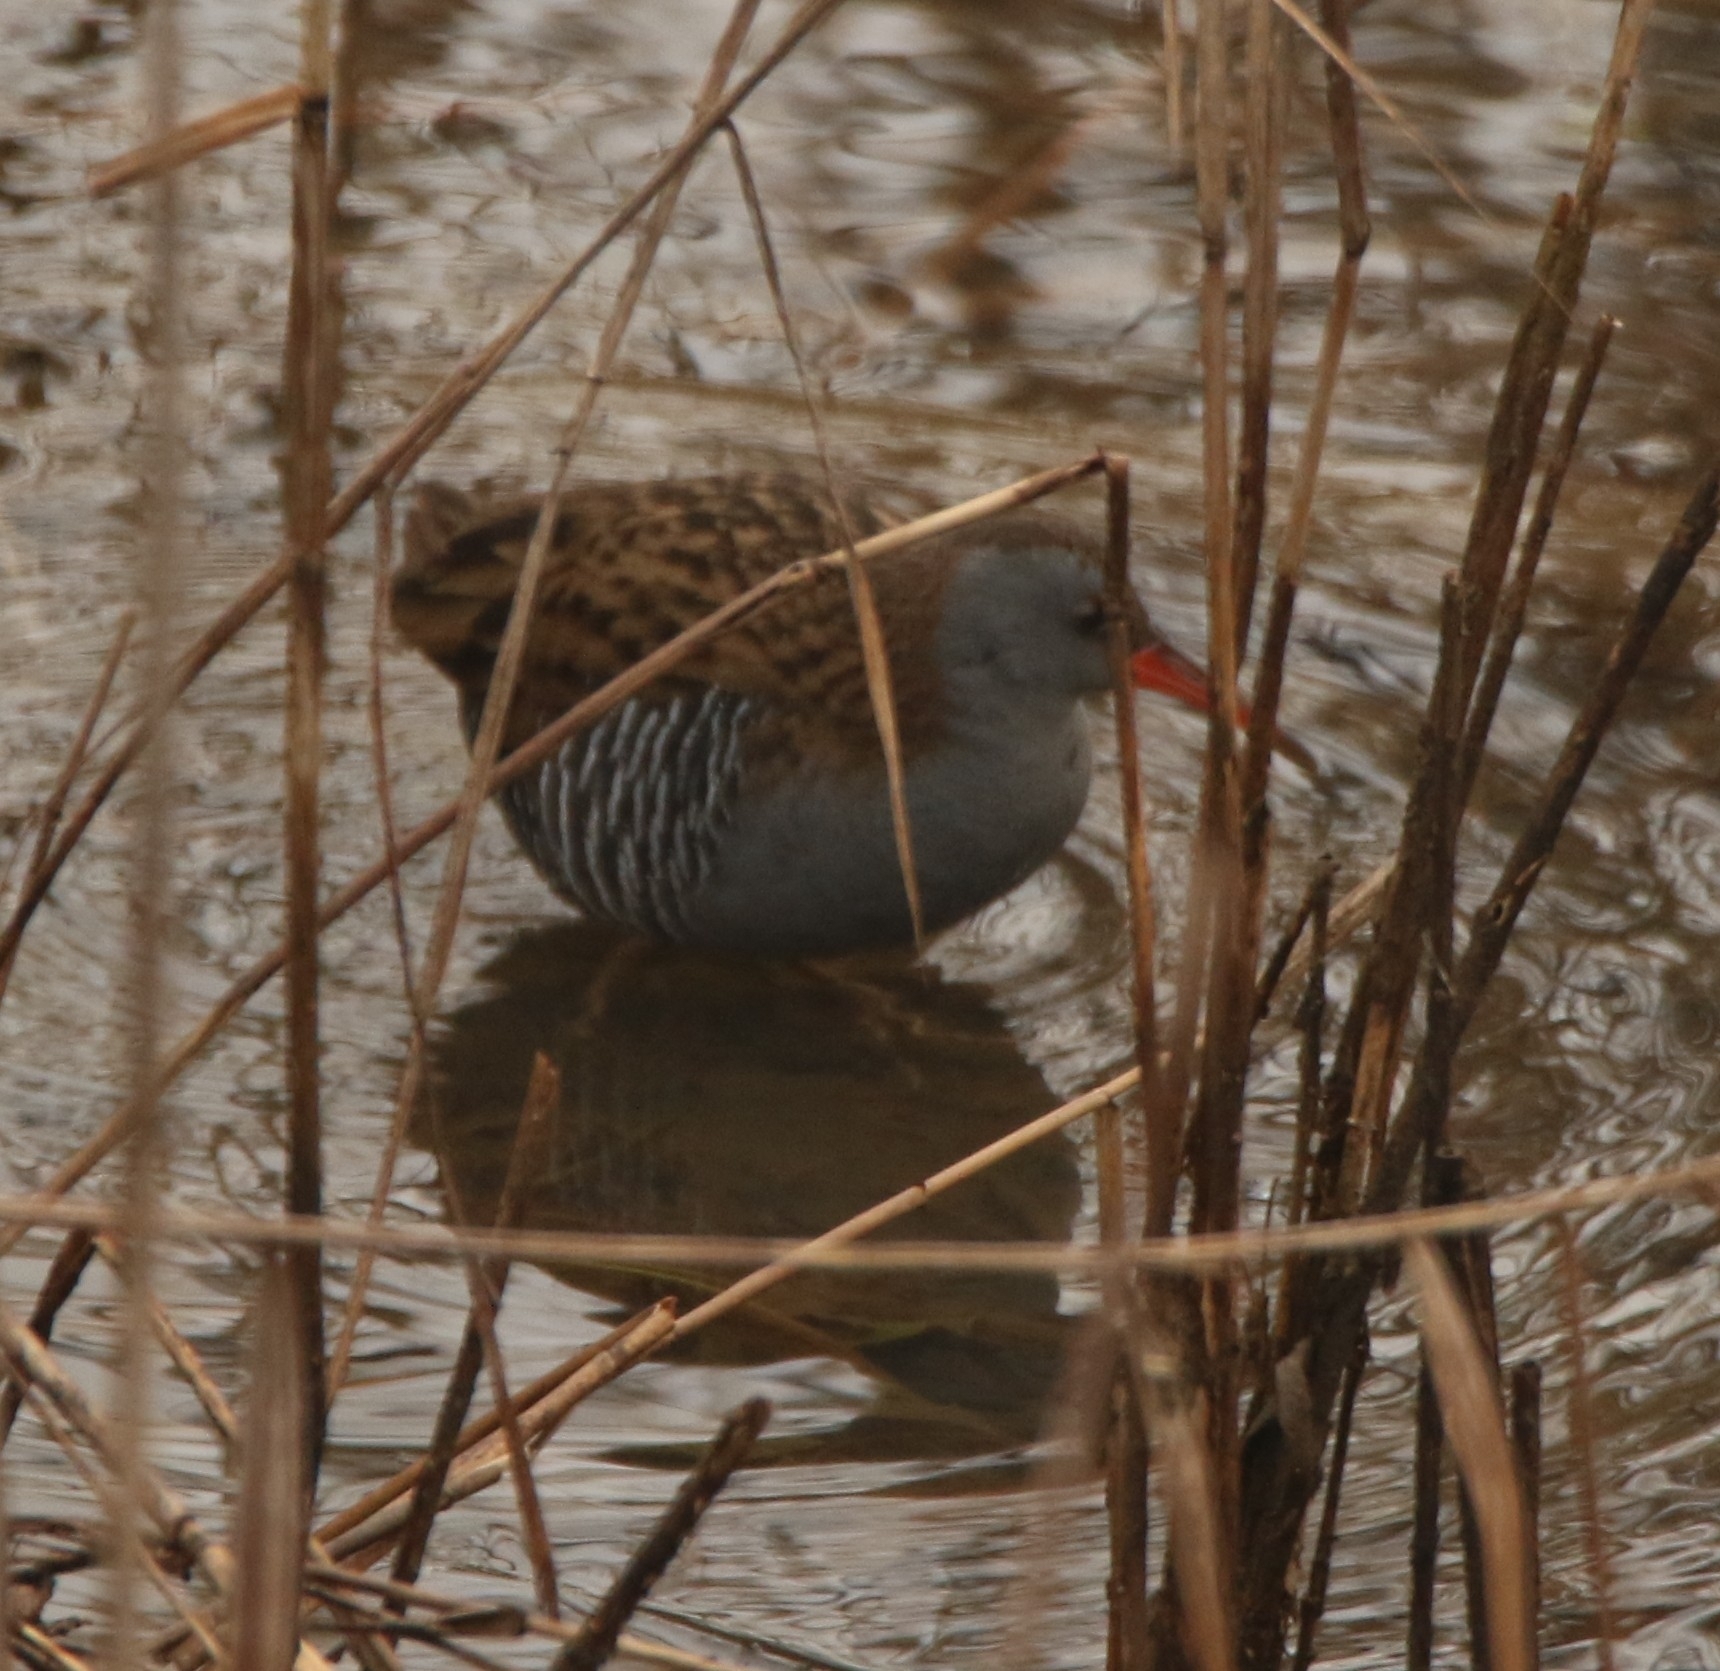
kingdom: Animalia
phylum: Chordata
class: Aves
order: Gruiformes
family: Rallidae
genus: Rallus
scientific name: Rallus aquaticus
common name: Water rail
